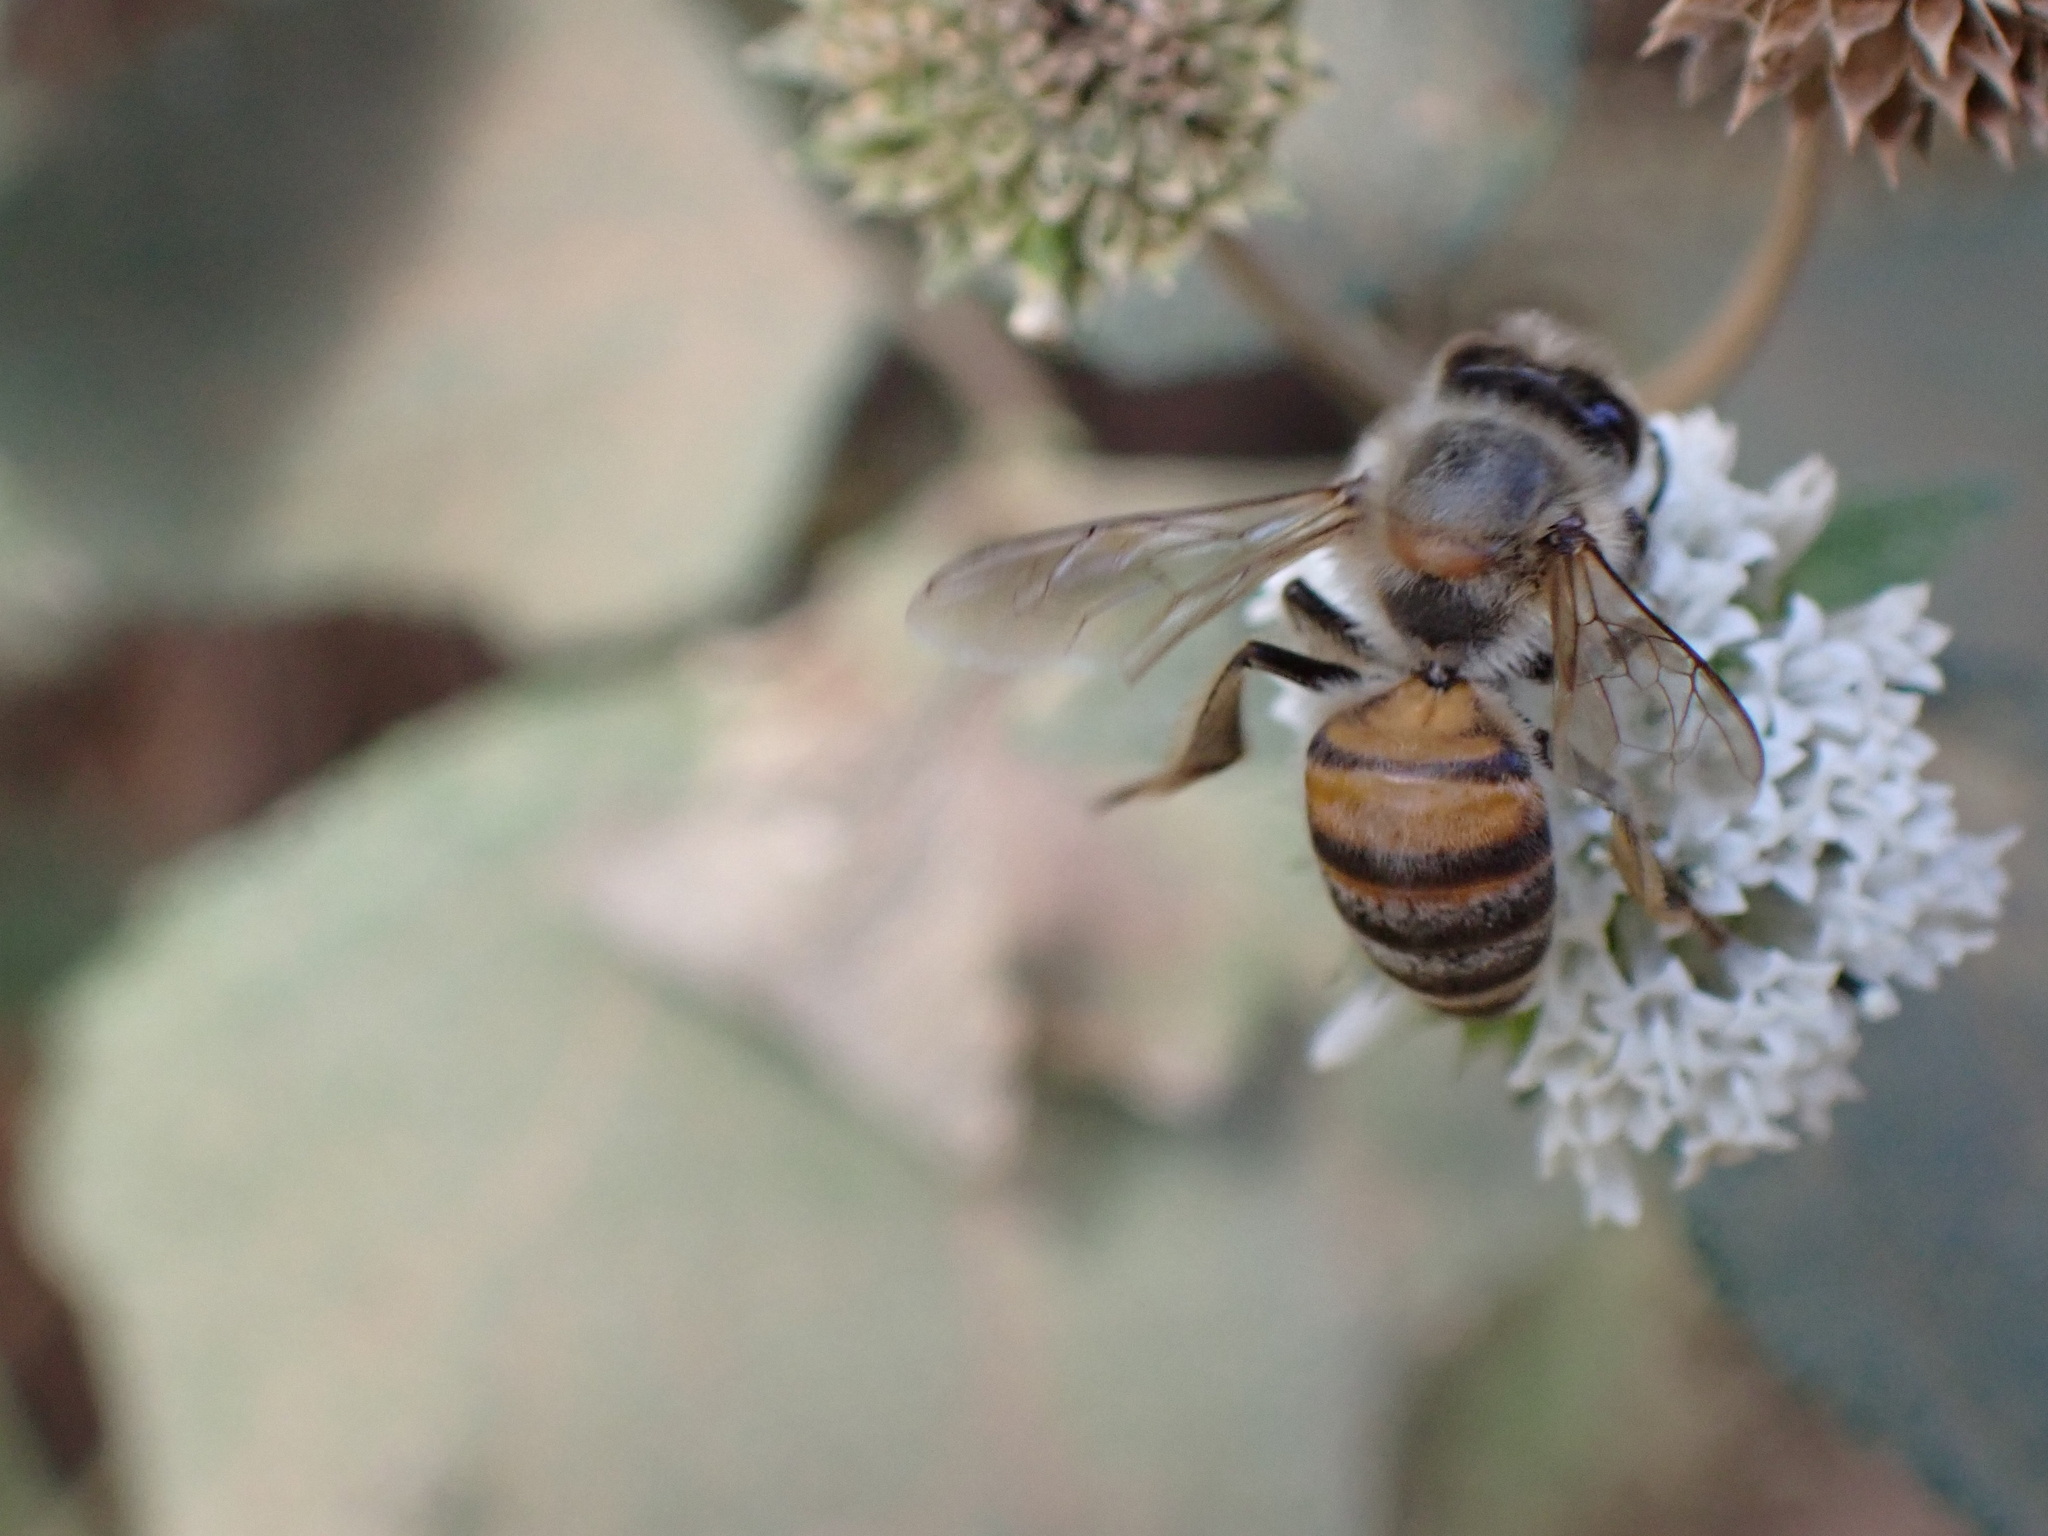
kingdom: Animalia
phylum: Arthropoda
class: Insecta
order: Hymenoptera
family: Apidae
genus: Apis
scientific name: Apis mellifera
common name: Honey bee
